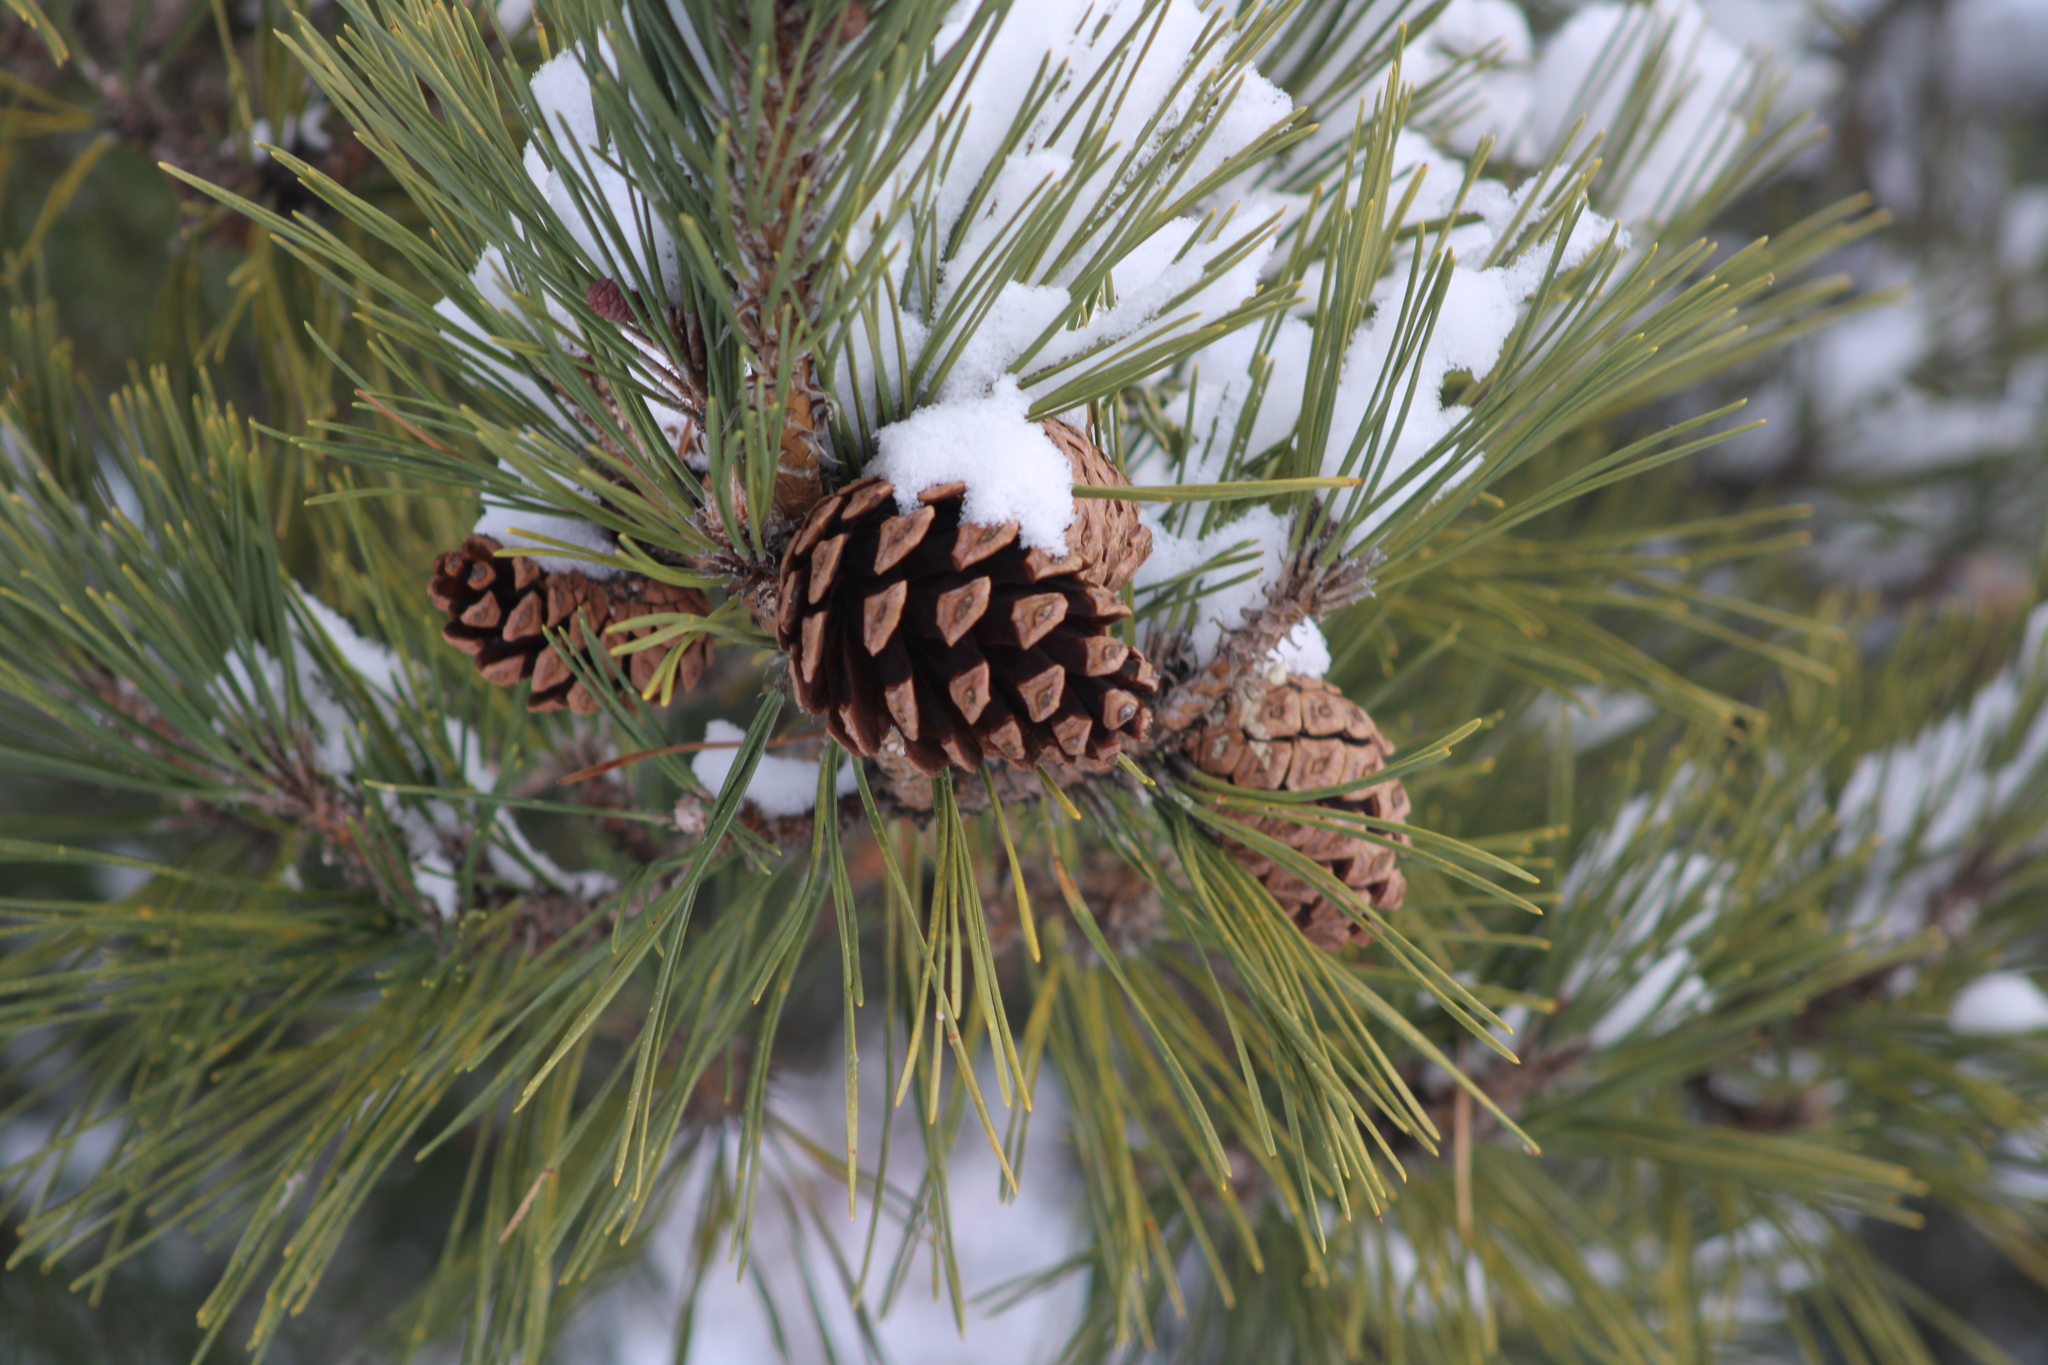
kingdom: Plantae
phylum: Tracheophyta
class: Pinopsida
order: Pinales
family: Pinaceae
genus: Pinus
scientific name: Pinus sylvestris
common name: Scots pine
